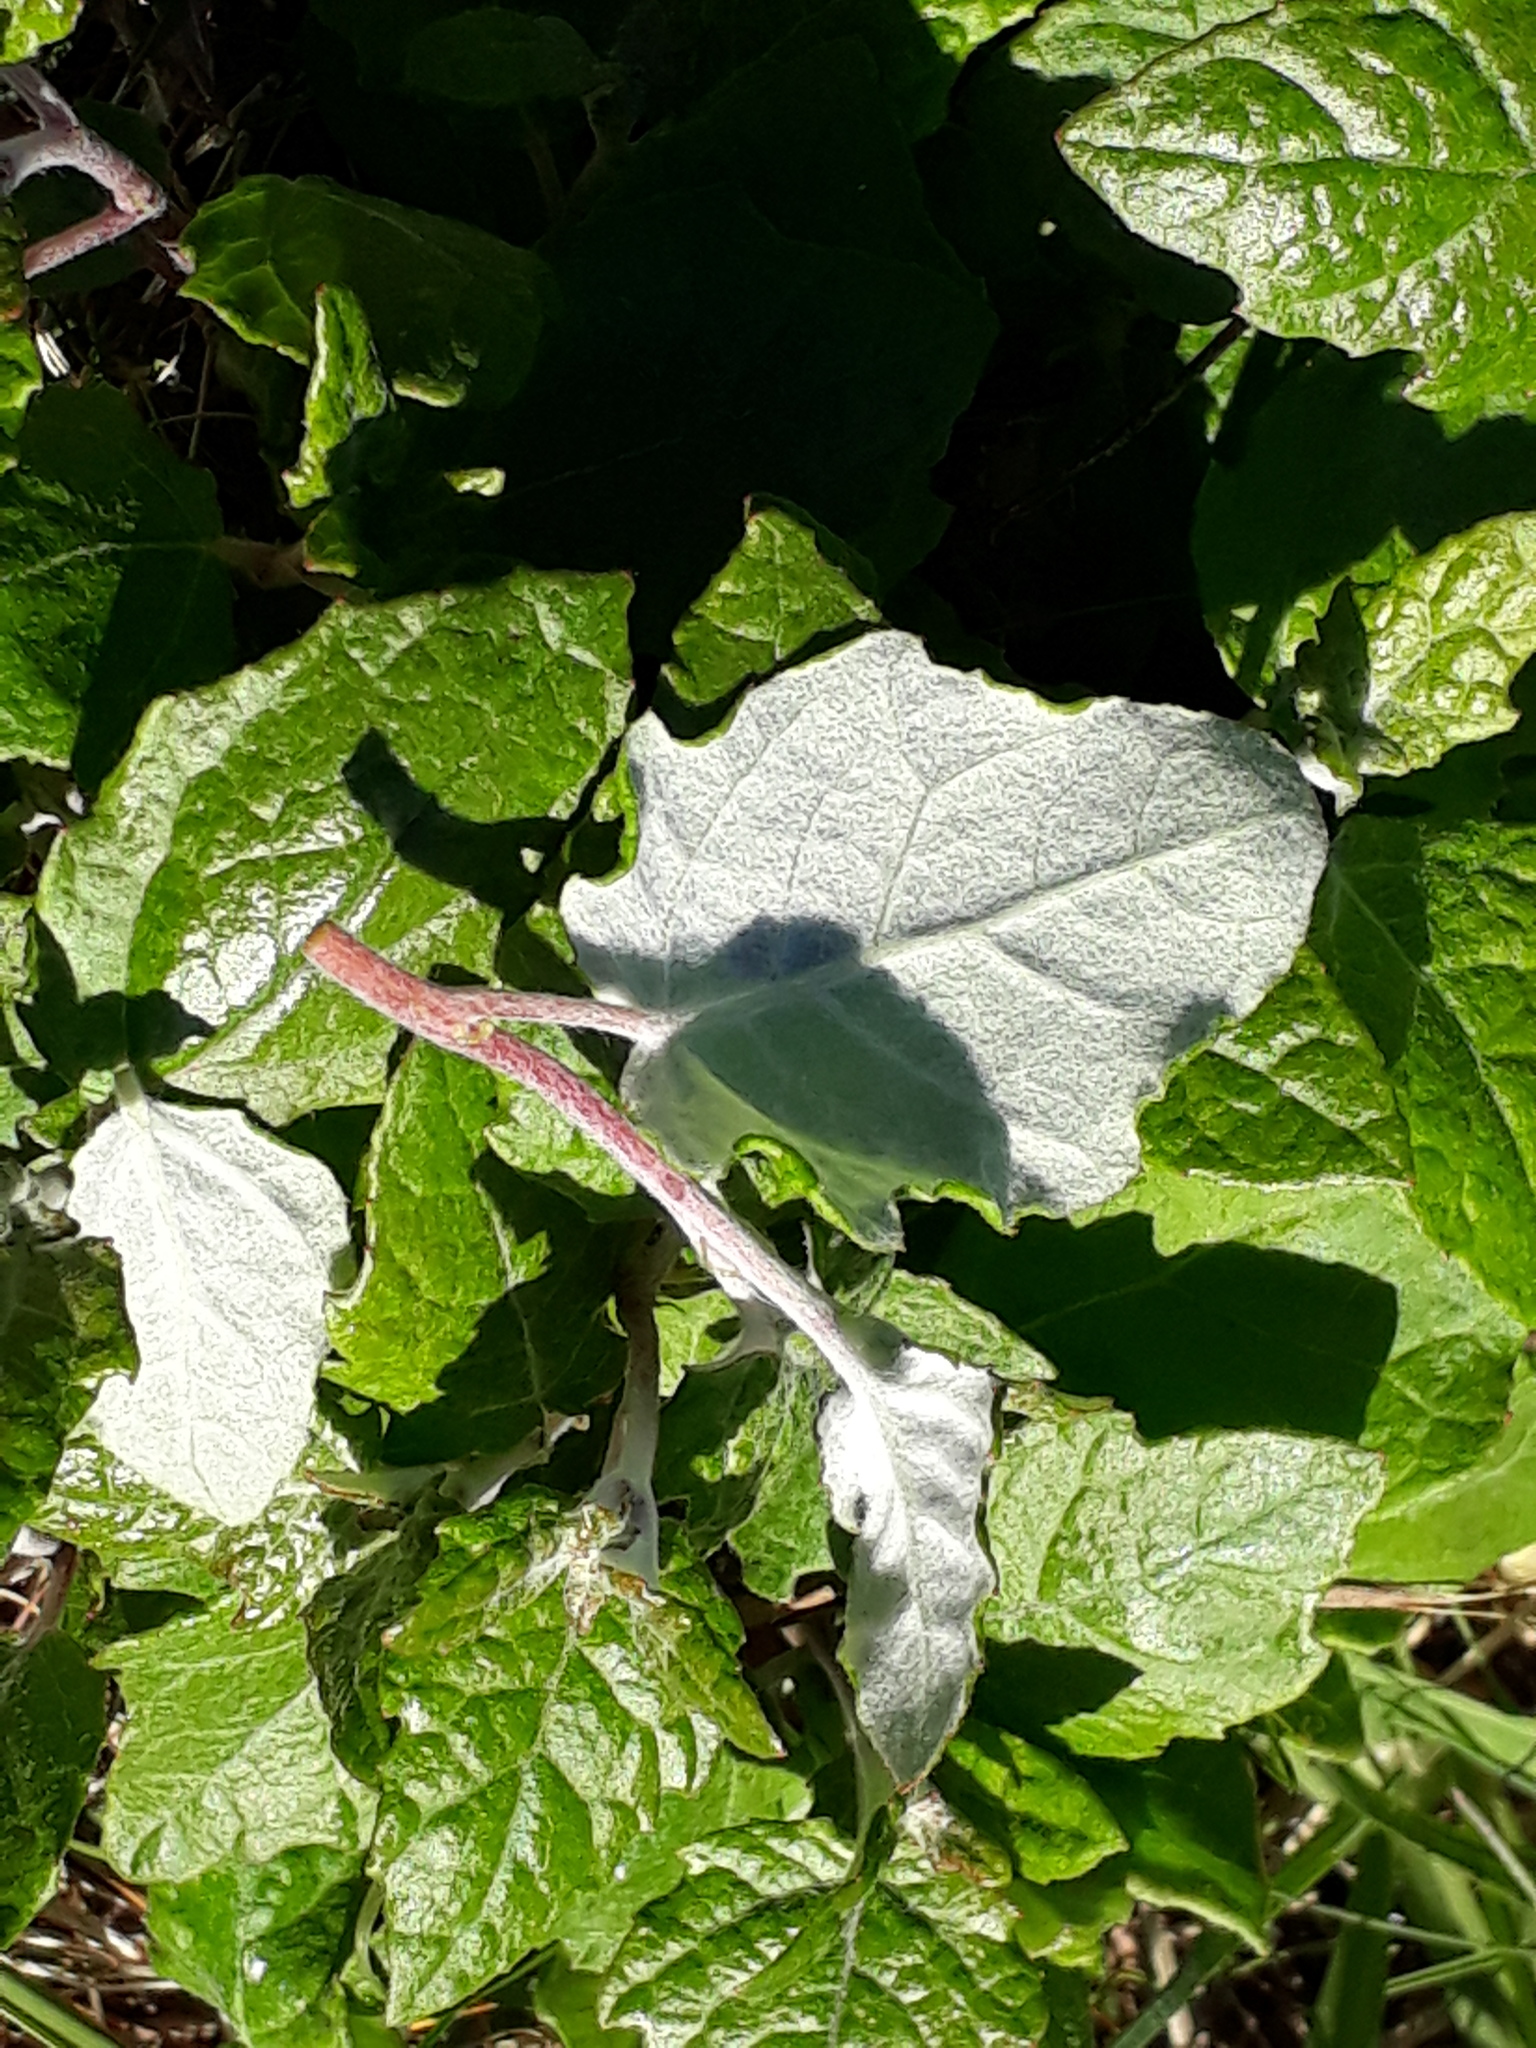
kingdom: Plantae
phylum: Tracheophyta
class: Magnoliopsida
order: Malpighiales
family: Salicaceae
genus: Populus
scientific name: Populus alba
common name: White poplar
